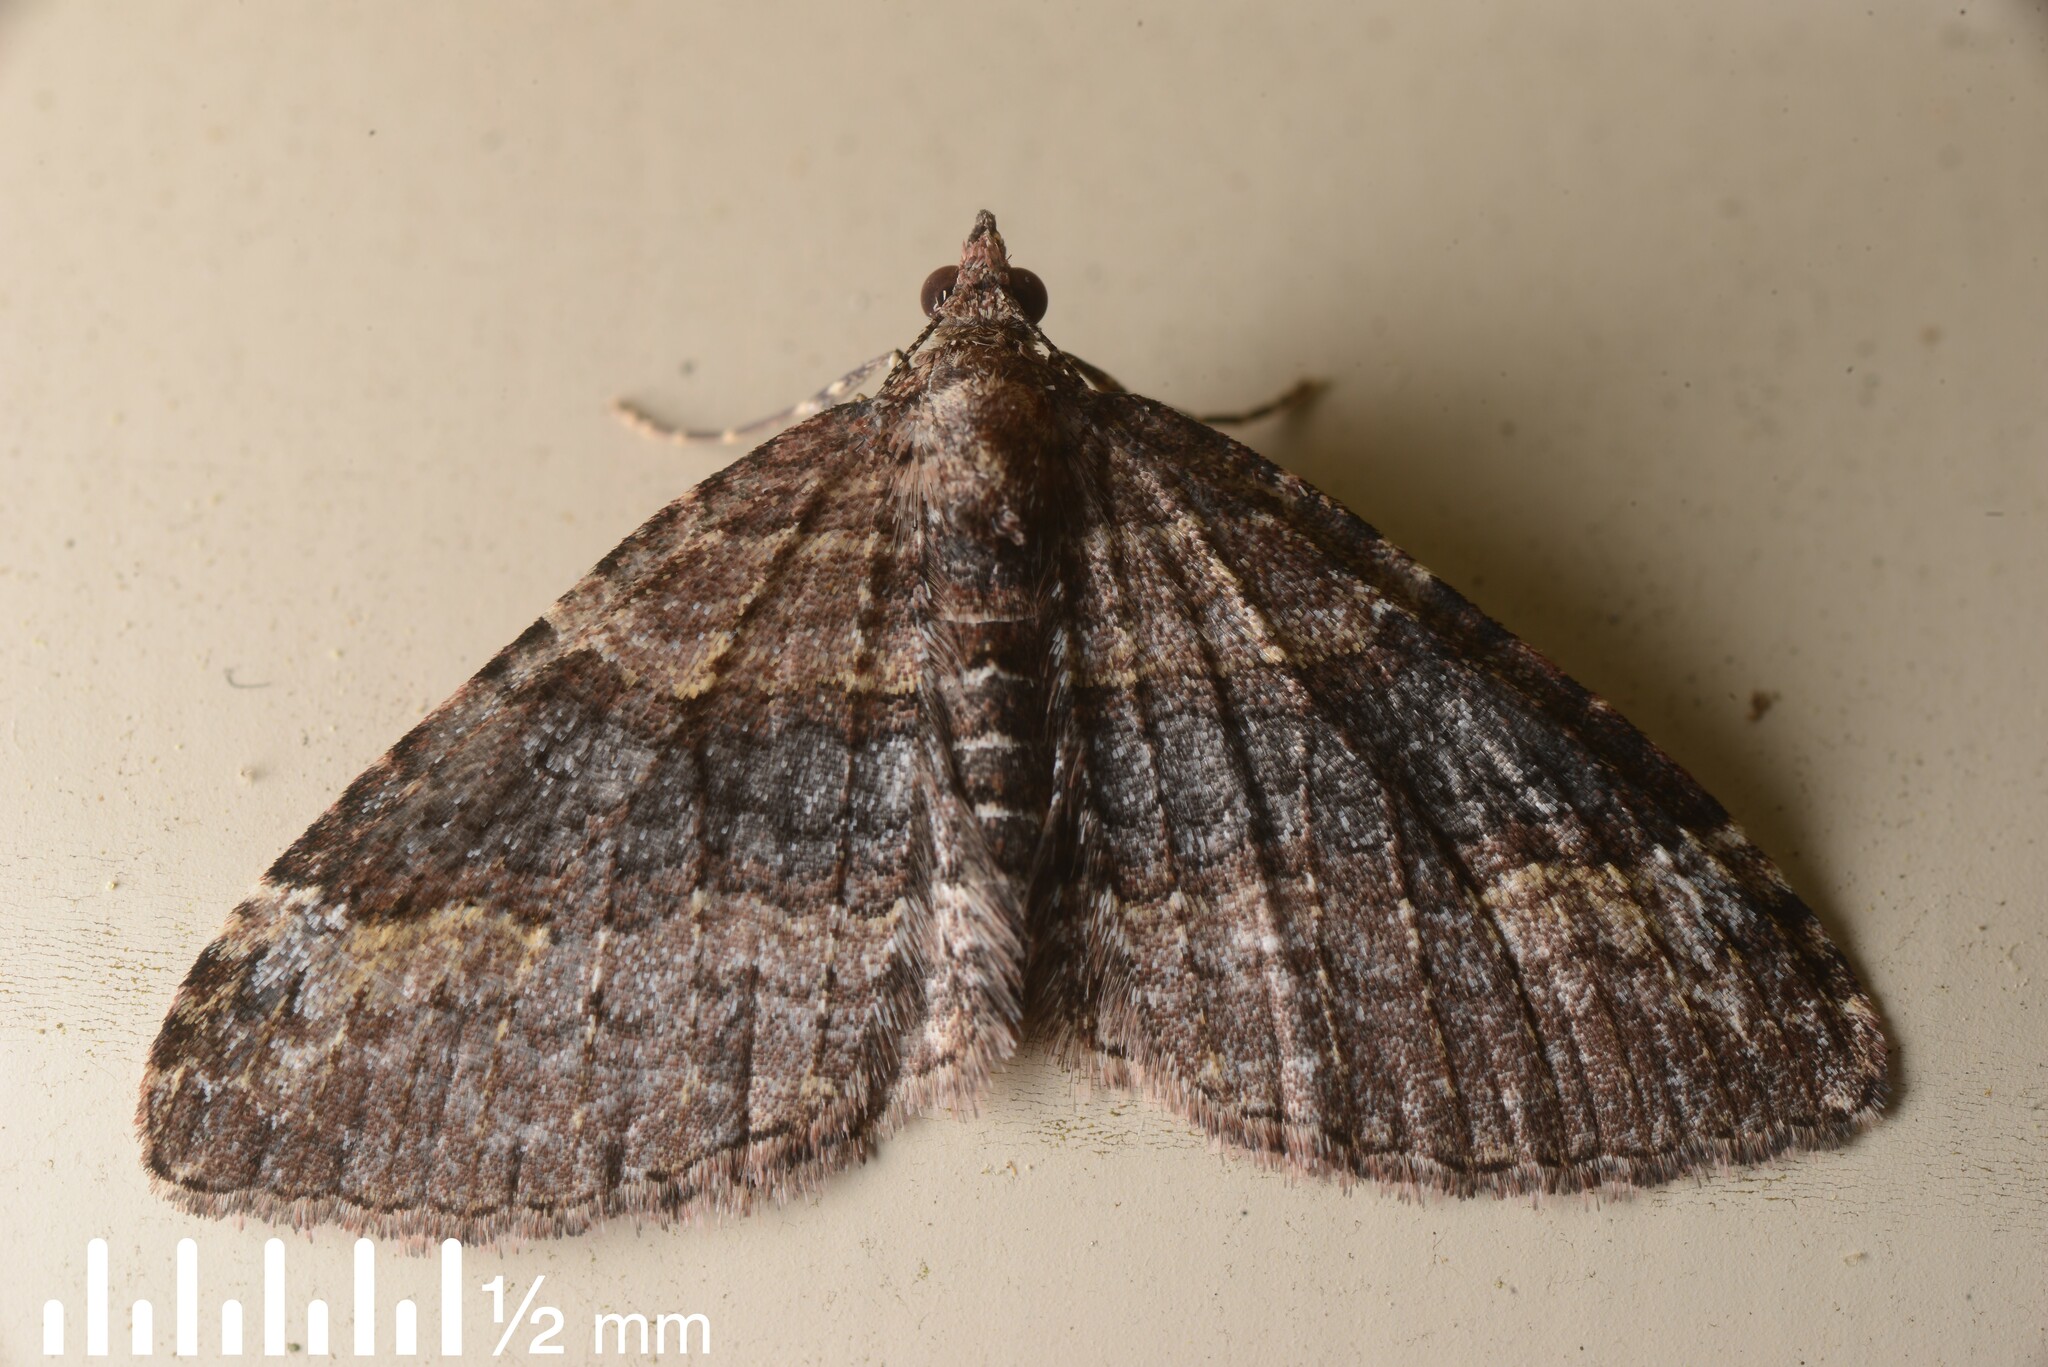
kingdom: Animalia
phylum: Arthropoda
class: Insecta
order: Lepidoptera
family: Geometridae
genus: Epyaxa
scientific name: Epyaxa lucidata
